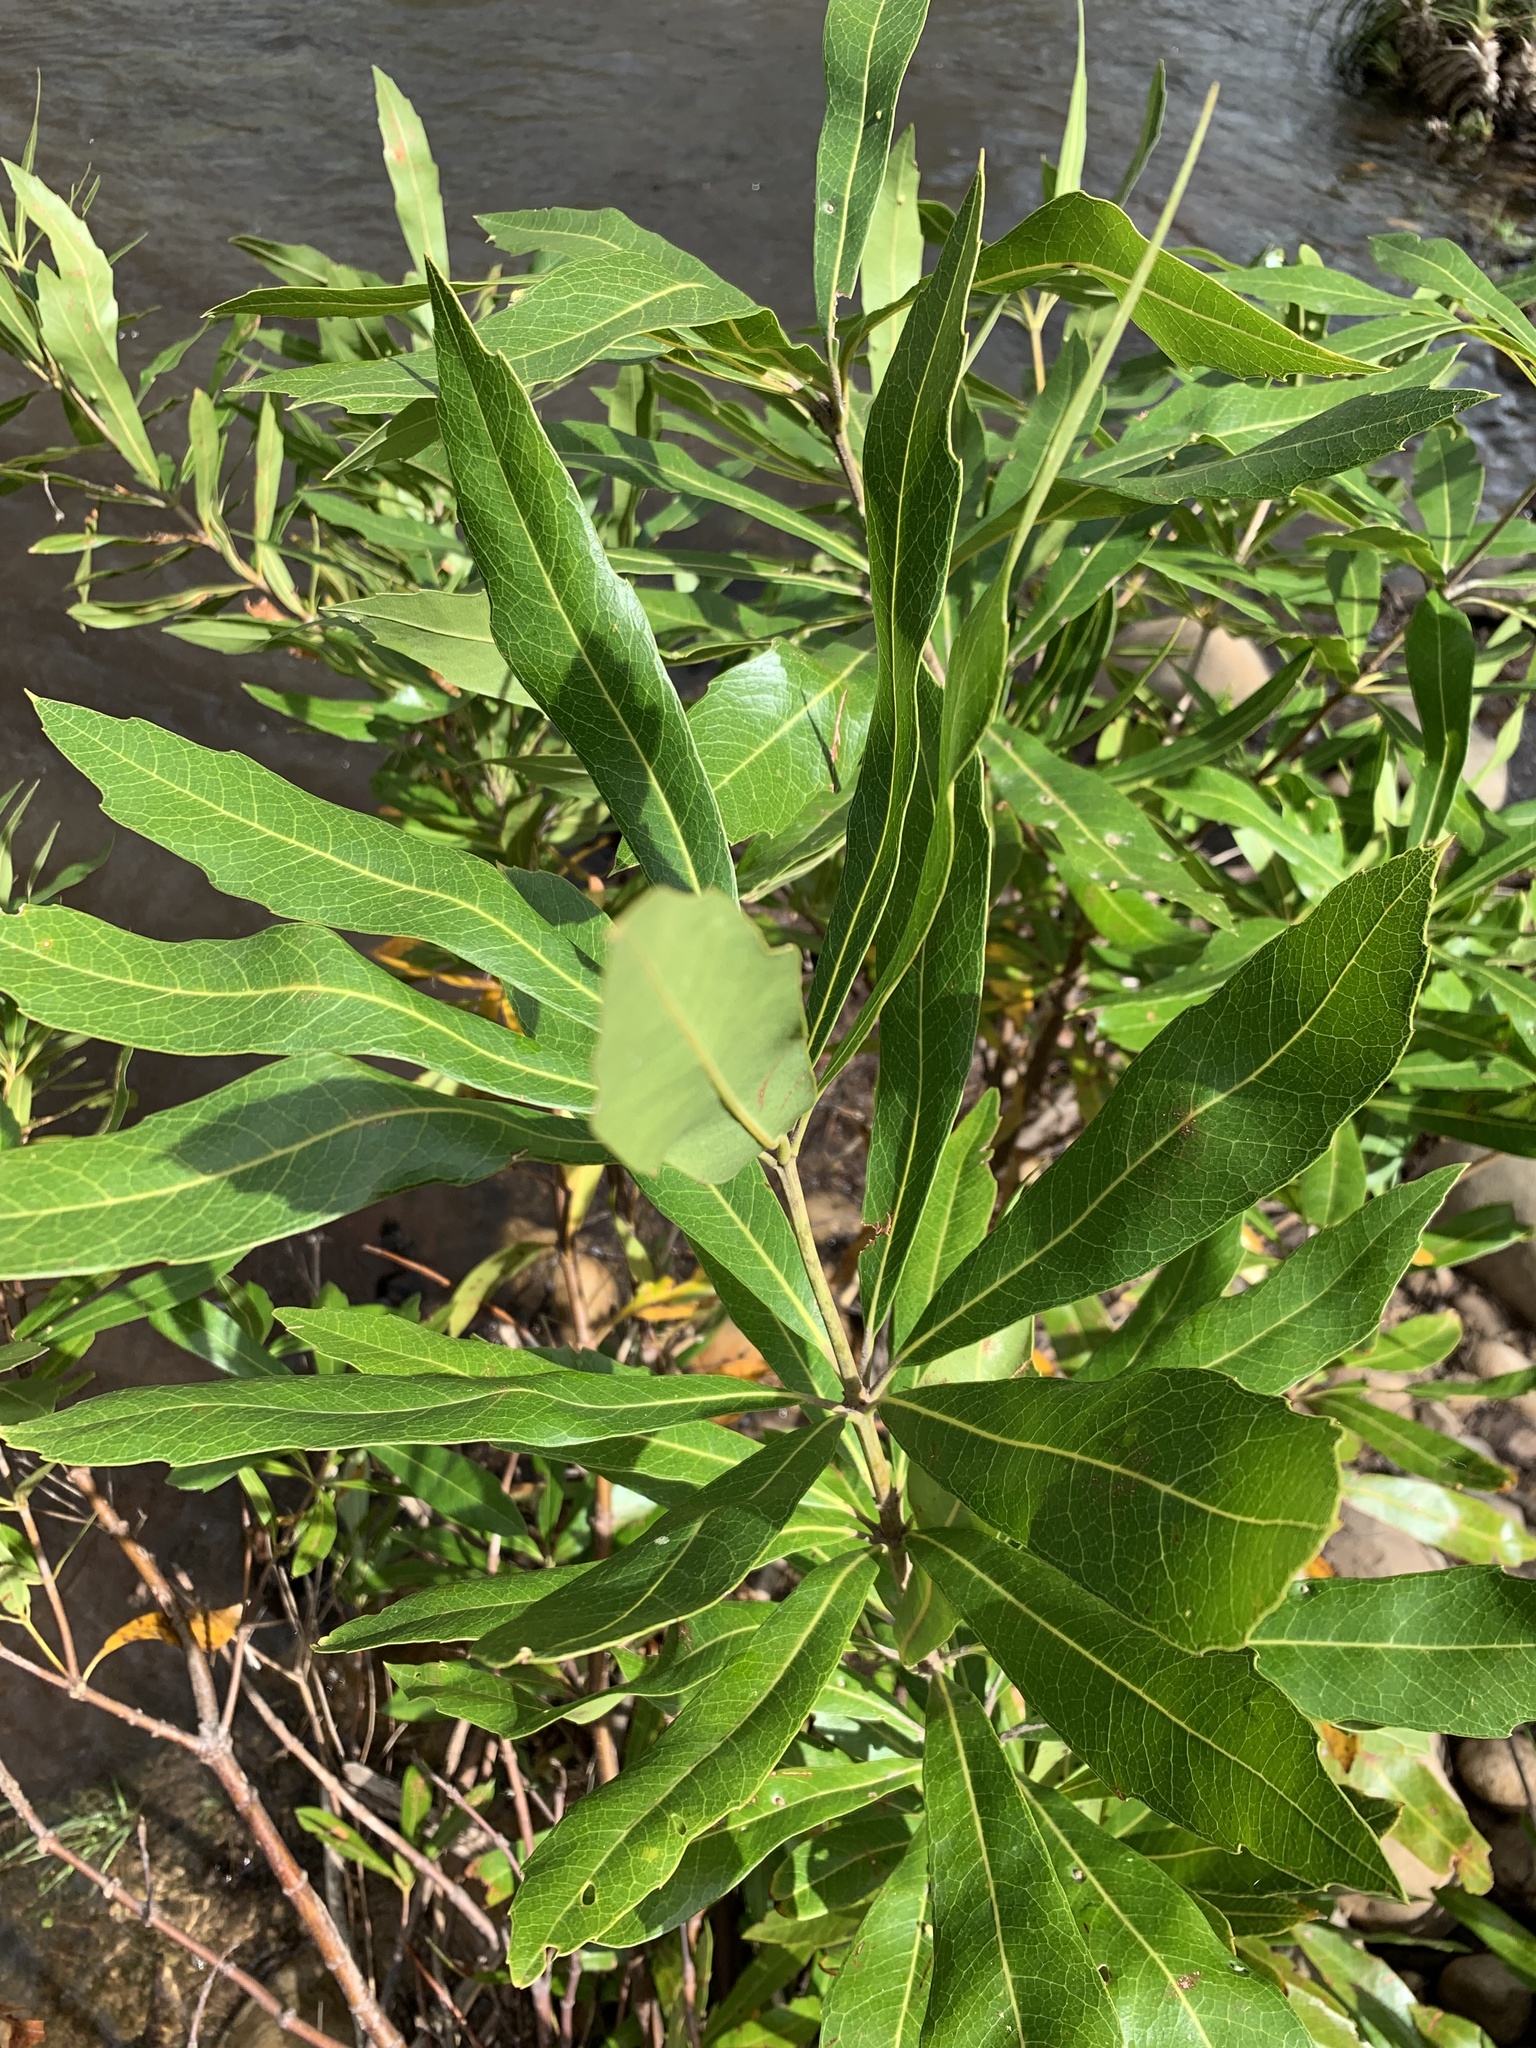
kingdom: Plantae
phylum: Tracheophyta
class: Magnoliopsida
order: Proteales
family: Proteaceae
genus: Brabejum
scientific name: Brabejum stellatifolium
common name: Wild almond
